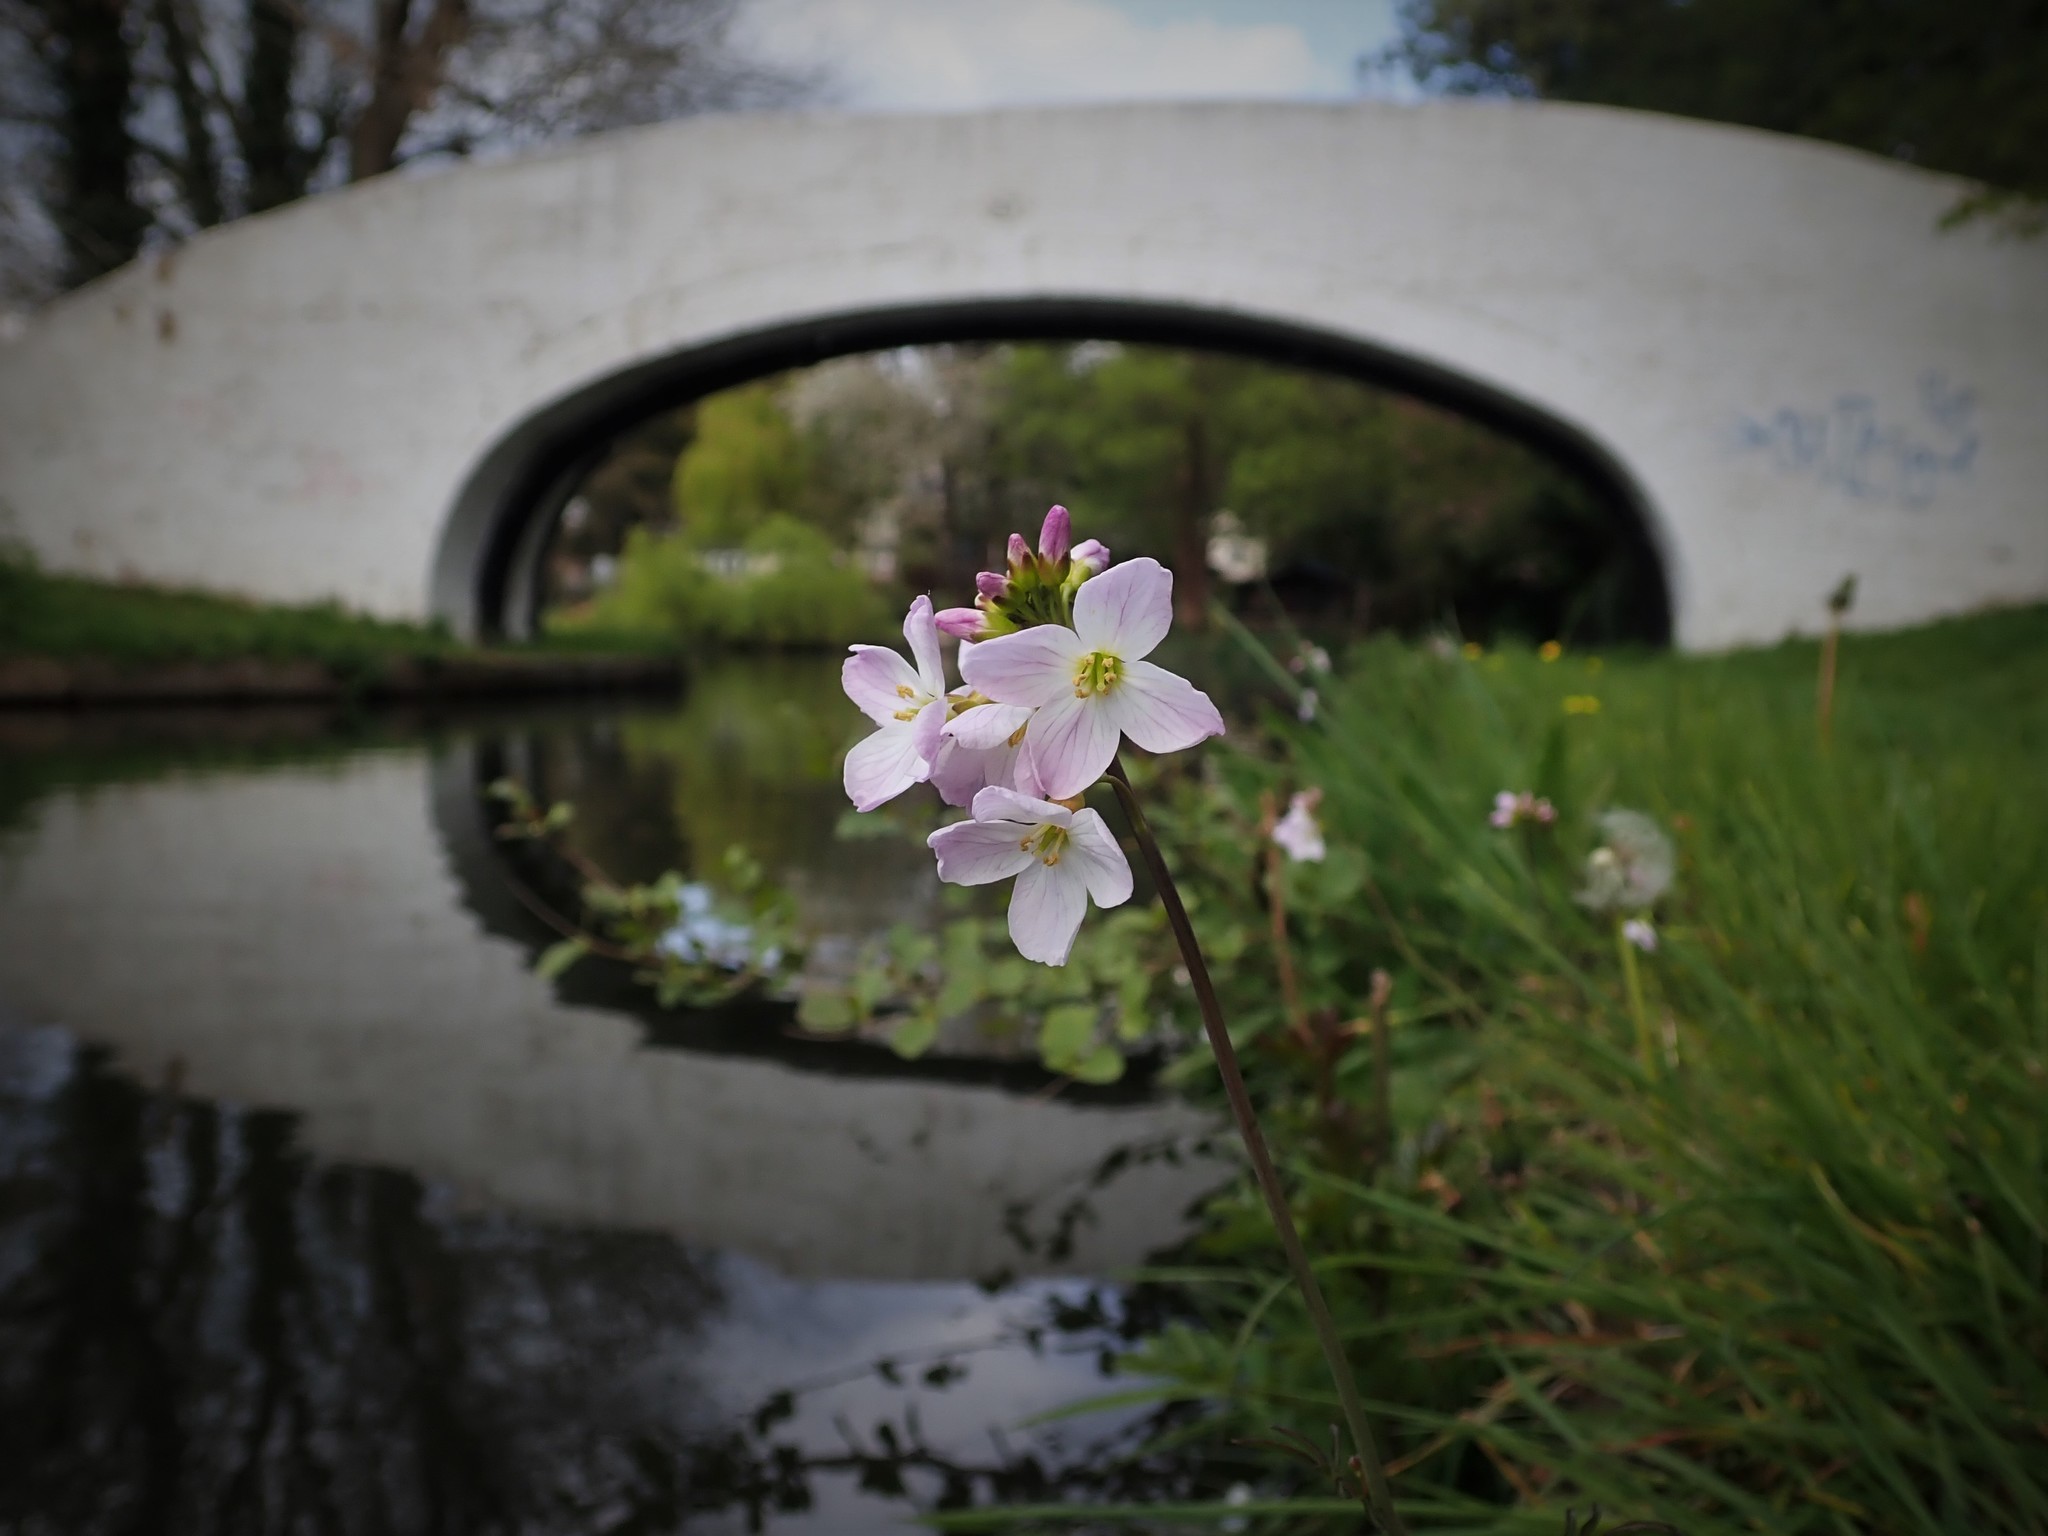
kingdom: Plantae
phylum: Tracheophyta
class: Magnoliopsida
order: Brassicales
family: Brassicaceae
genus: Cardamine
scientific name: Cardamine pratensis
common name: Cuckoo flower
